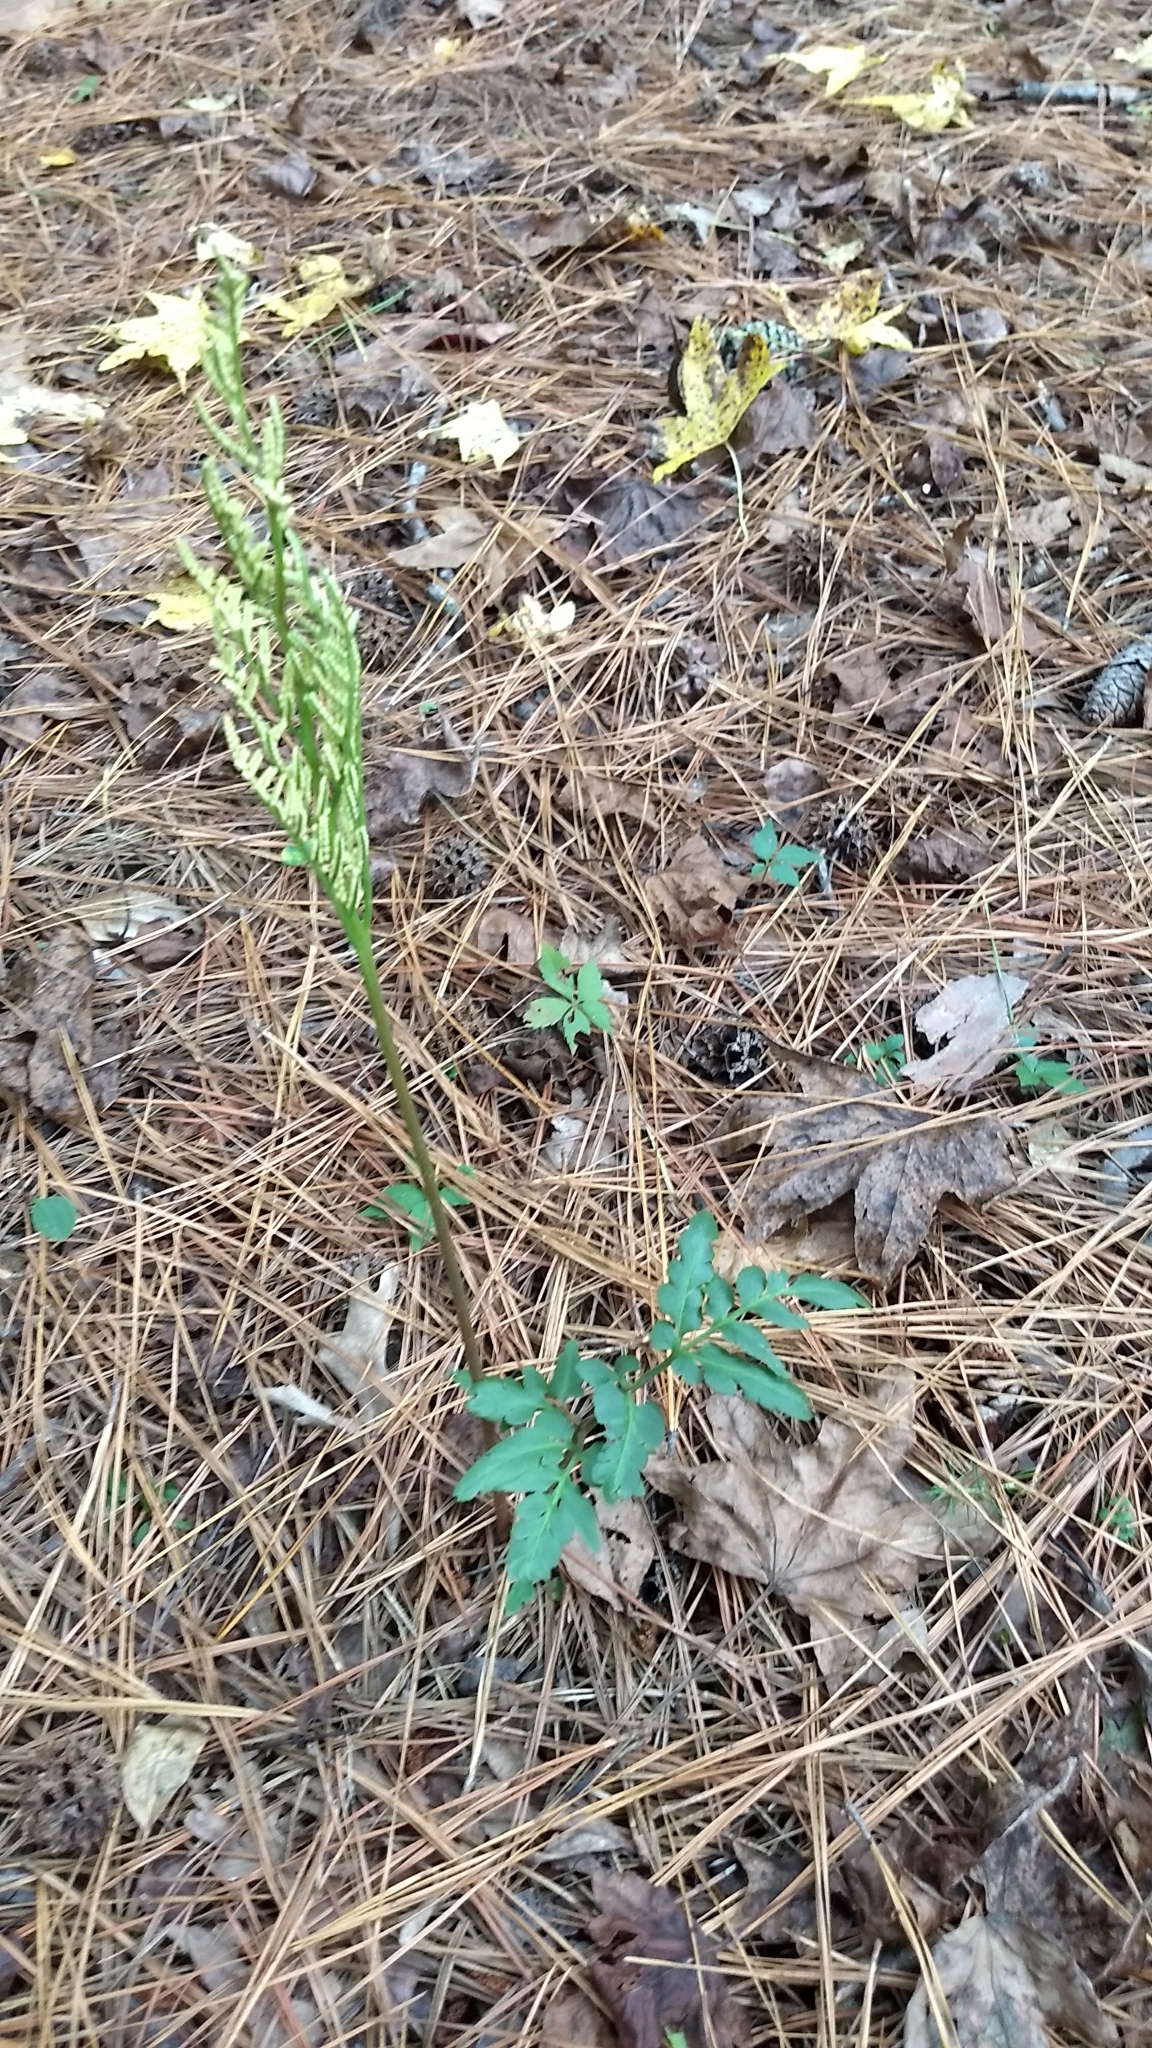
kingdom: Plantae
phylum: Tracheophyta
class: Polypodiopsida
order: Ophioglossales
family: Ophioglossaceae
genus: Sceptridium
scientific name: Sceptridium dissectum
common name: Cut-leaved grapefern
